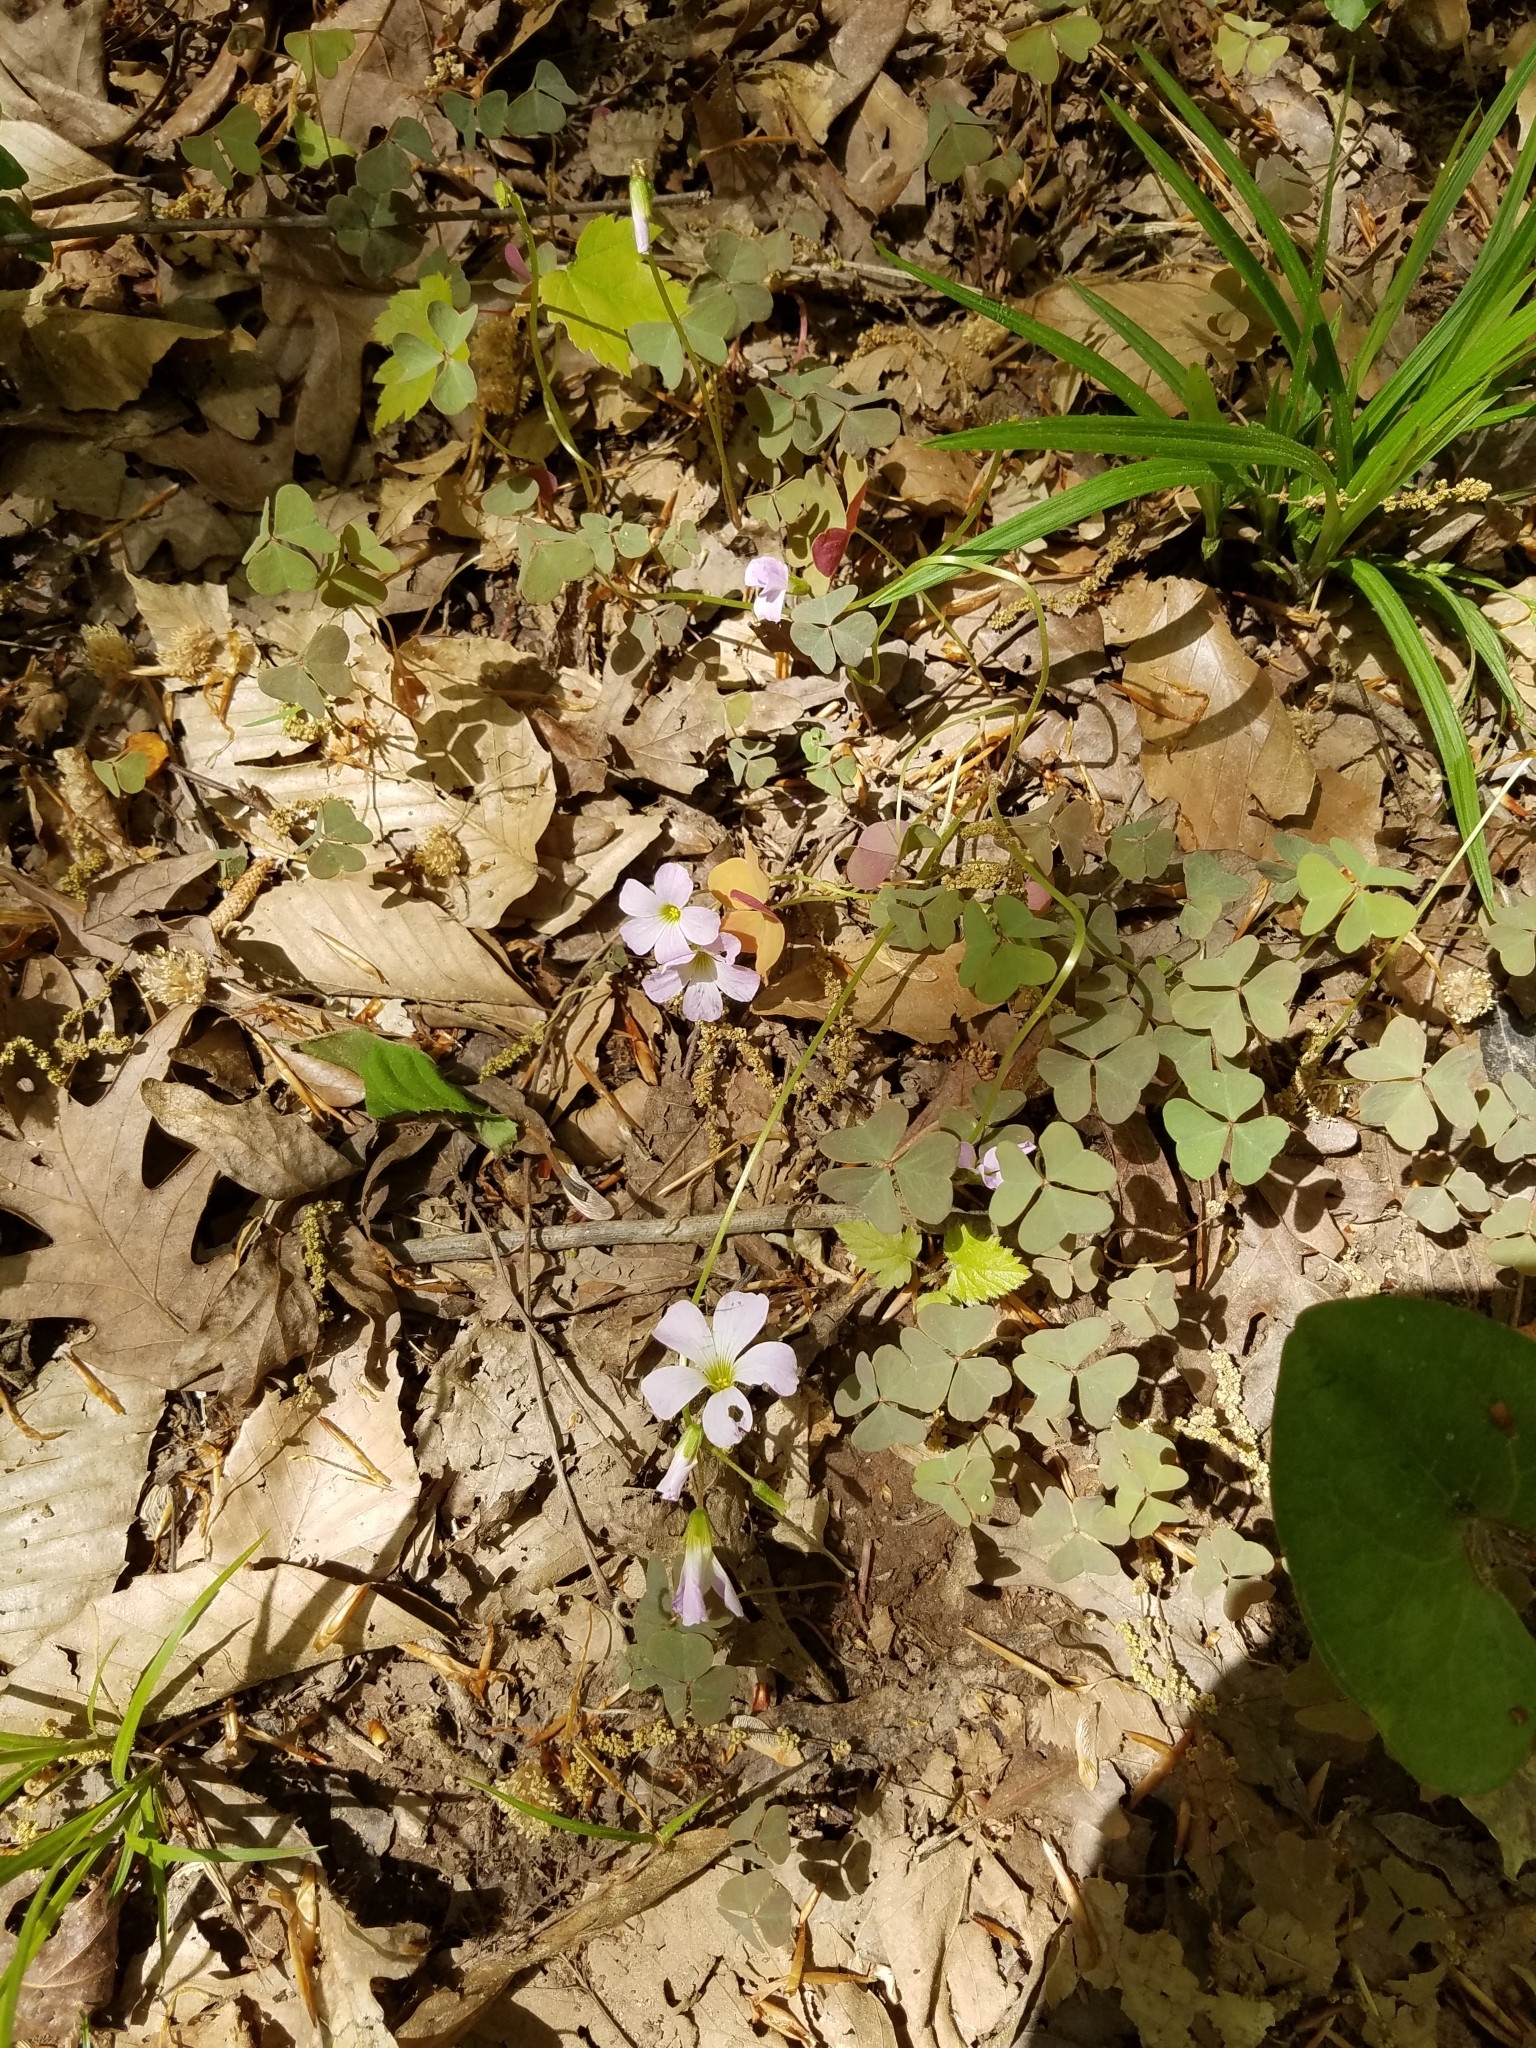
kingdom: Plantae
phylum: Tracheophyta
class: Magnoliopsida
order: Oxalidales
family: Oxalidaceae
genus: Oxalis
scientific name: Oxalis violacea
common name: Violet wood-sorrel
